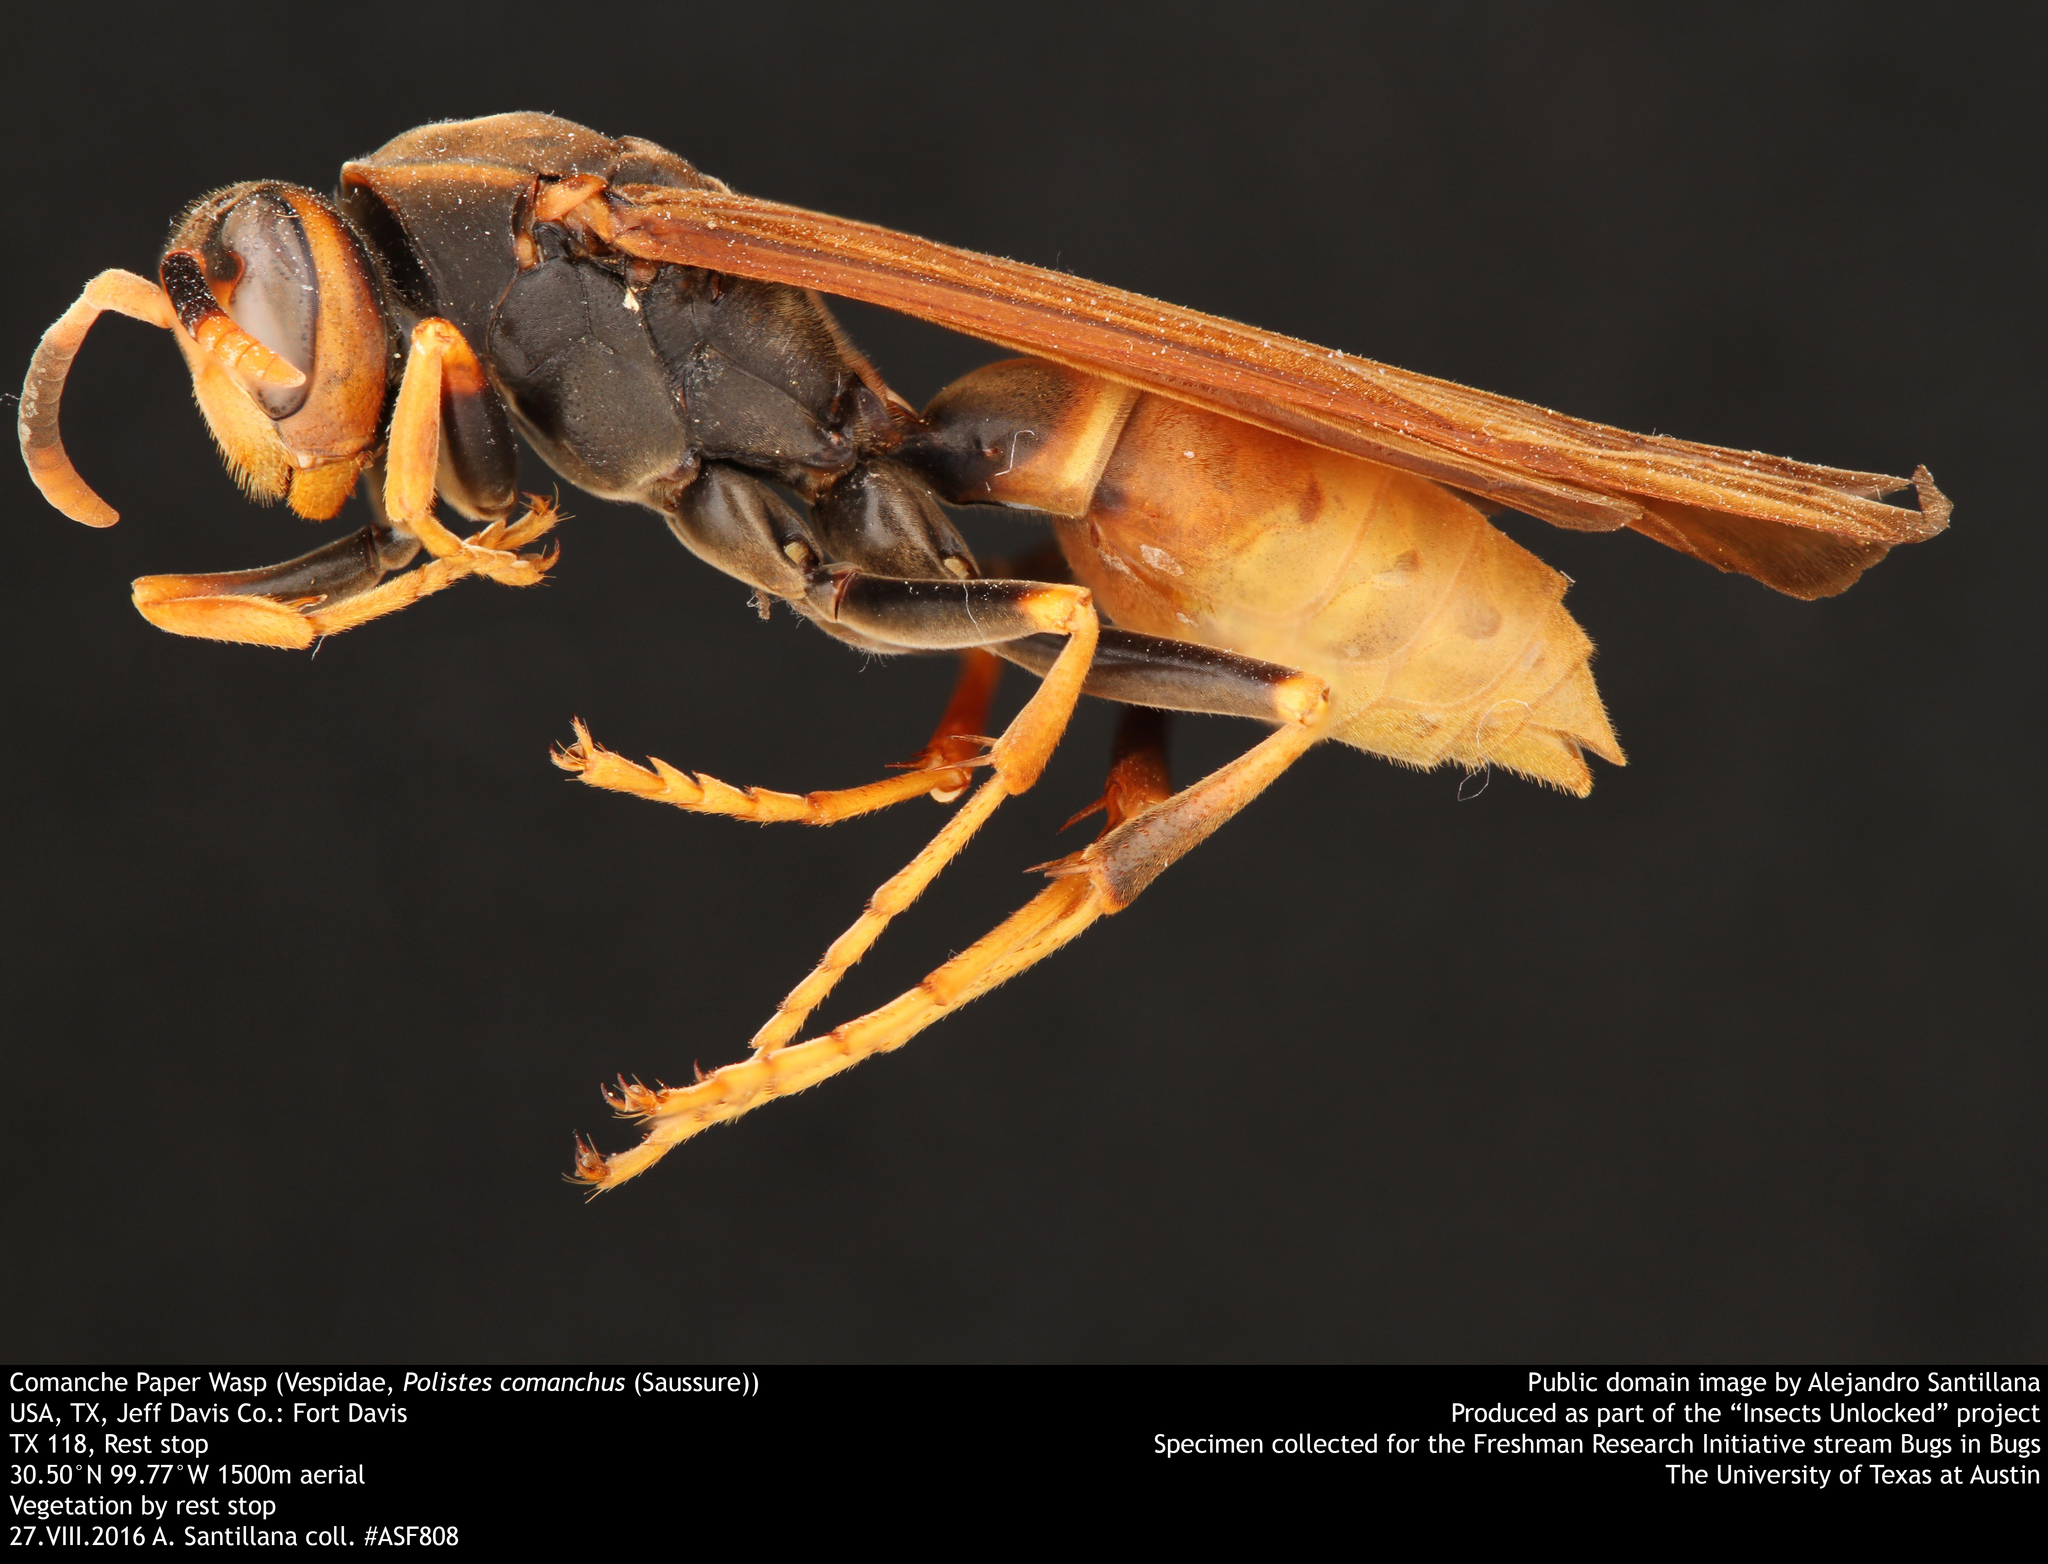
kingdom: Animalia
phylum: Arthropoda
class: Insecta
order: Hymenoptera
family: Eumenidae
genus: Polistes
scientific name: Polistes comanchus
